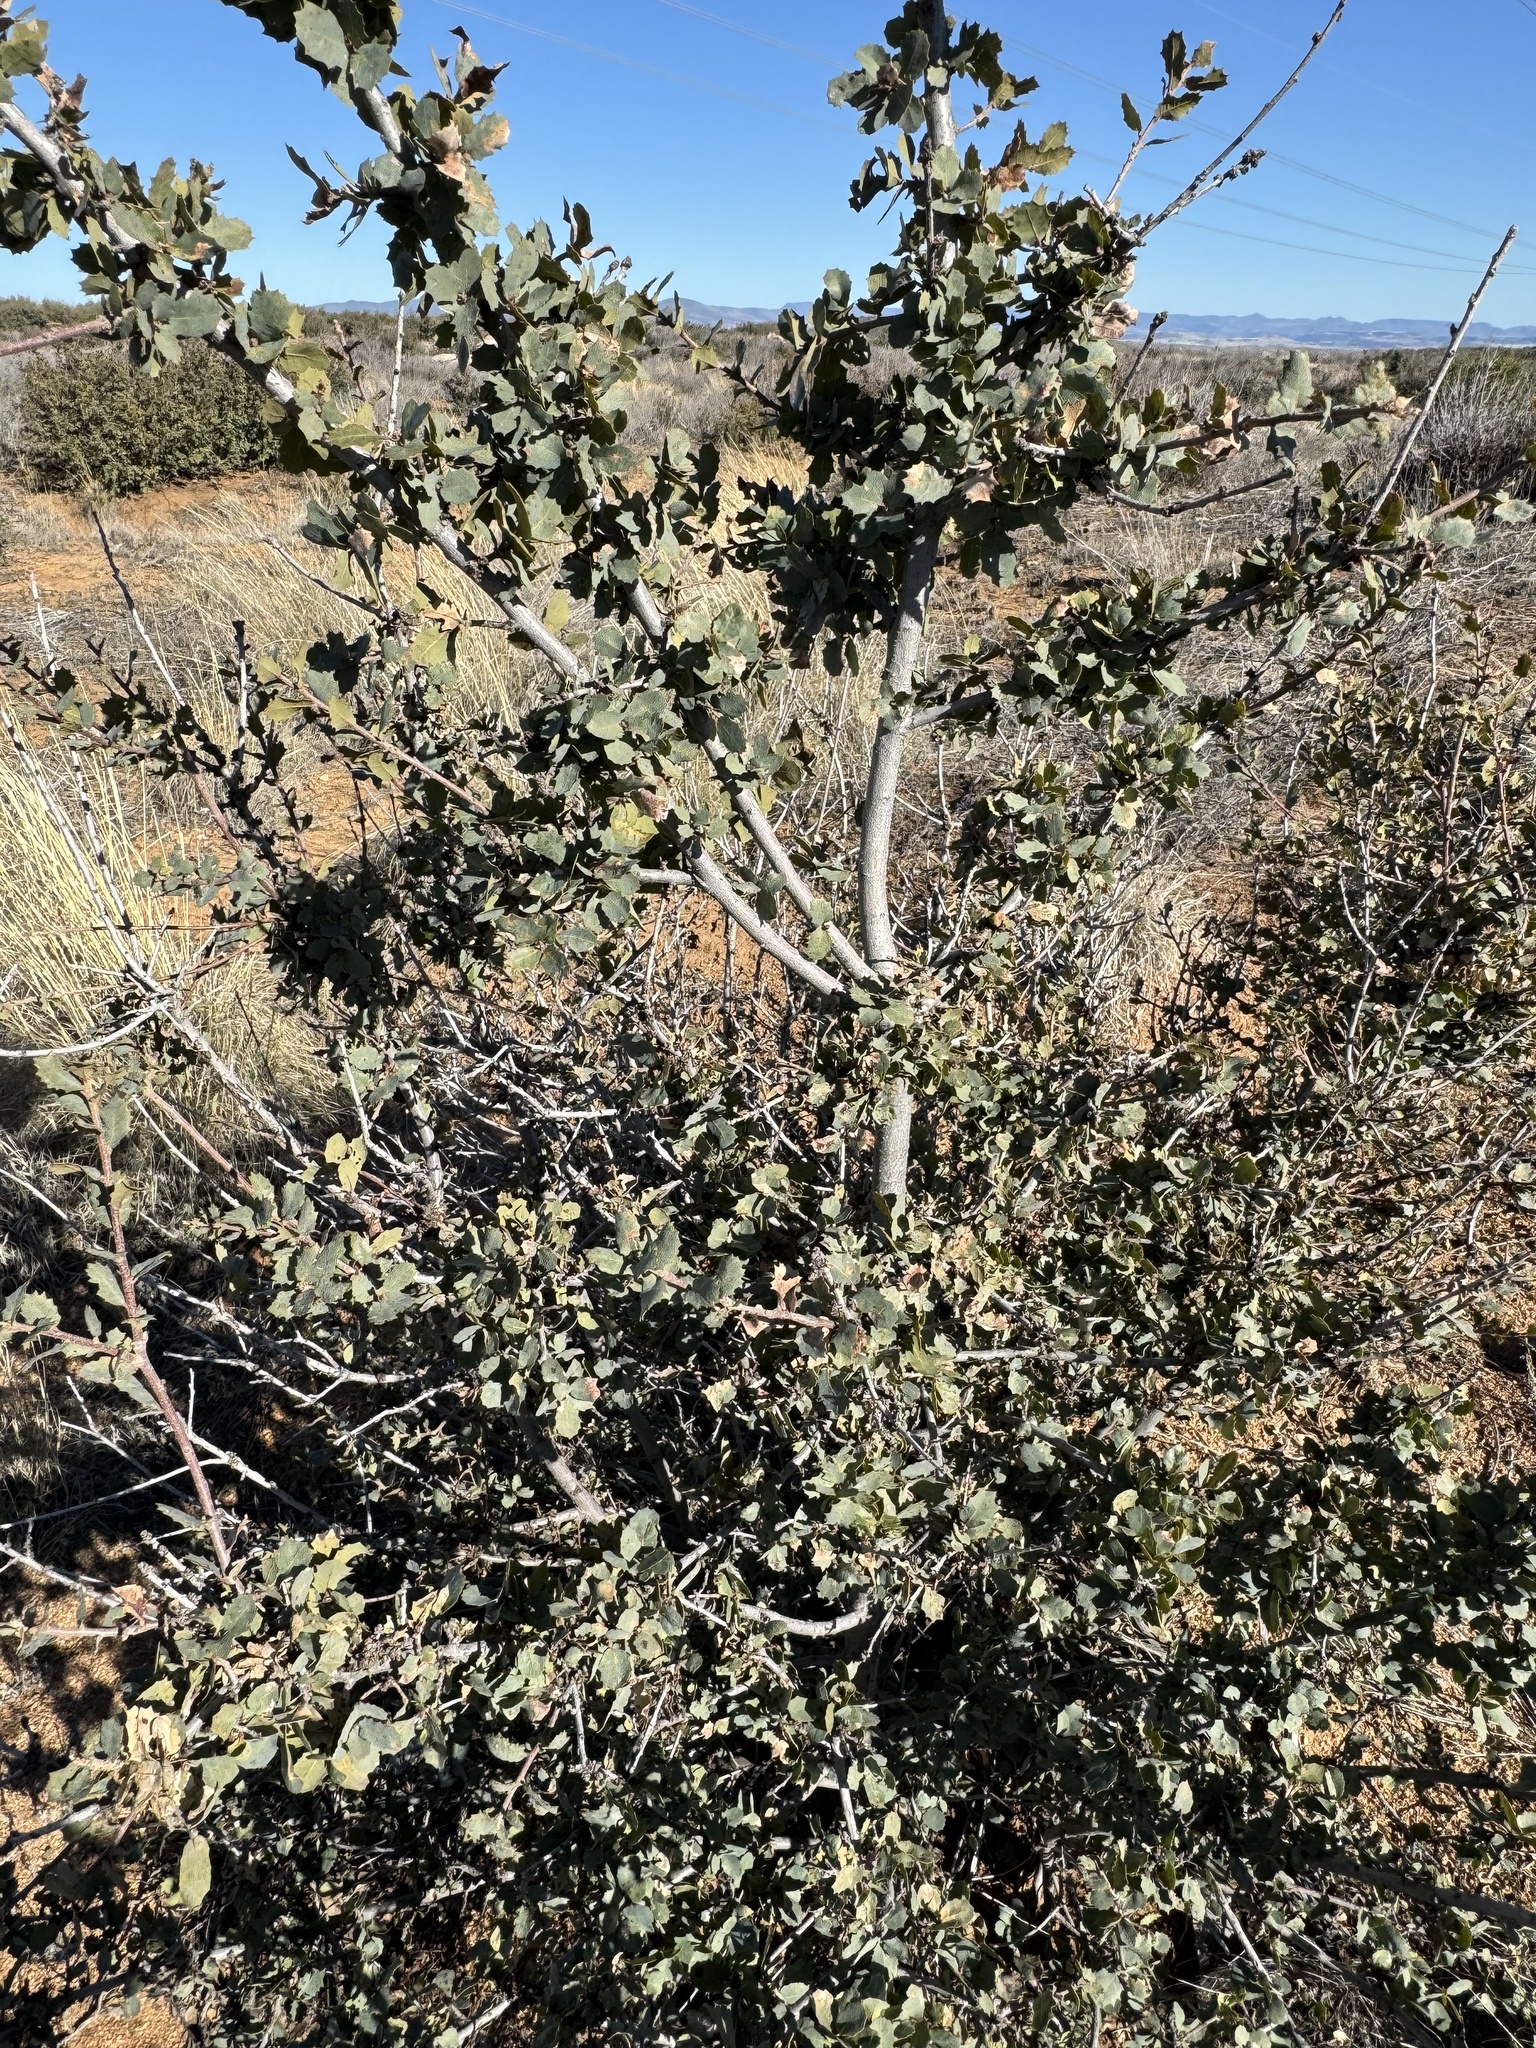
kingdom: Plantae
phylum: Tracheophyta
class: Magnoliopsida
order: Fagales
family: Fagaceae
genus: Quercus
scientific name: Quercus turbinella
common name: Sonoran scrub oak
